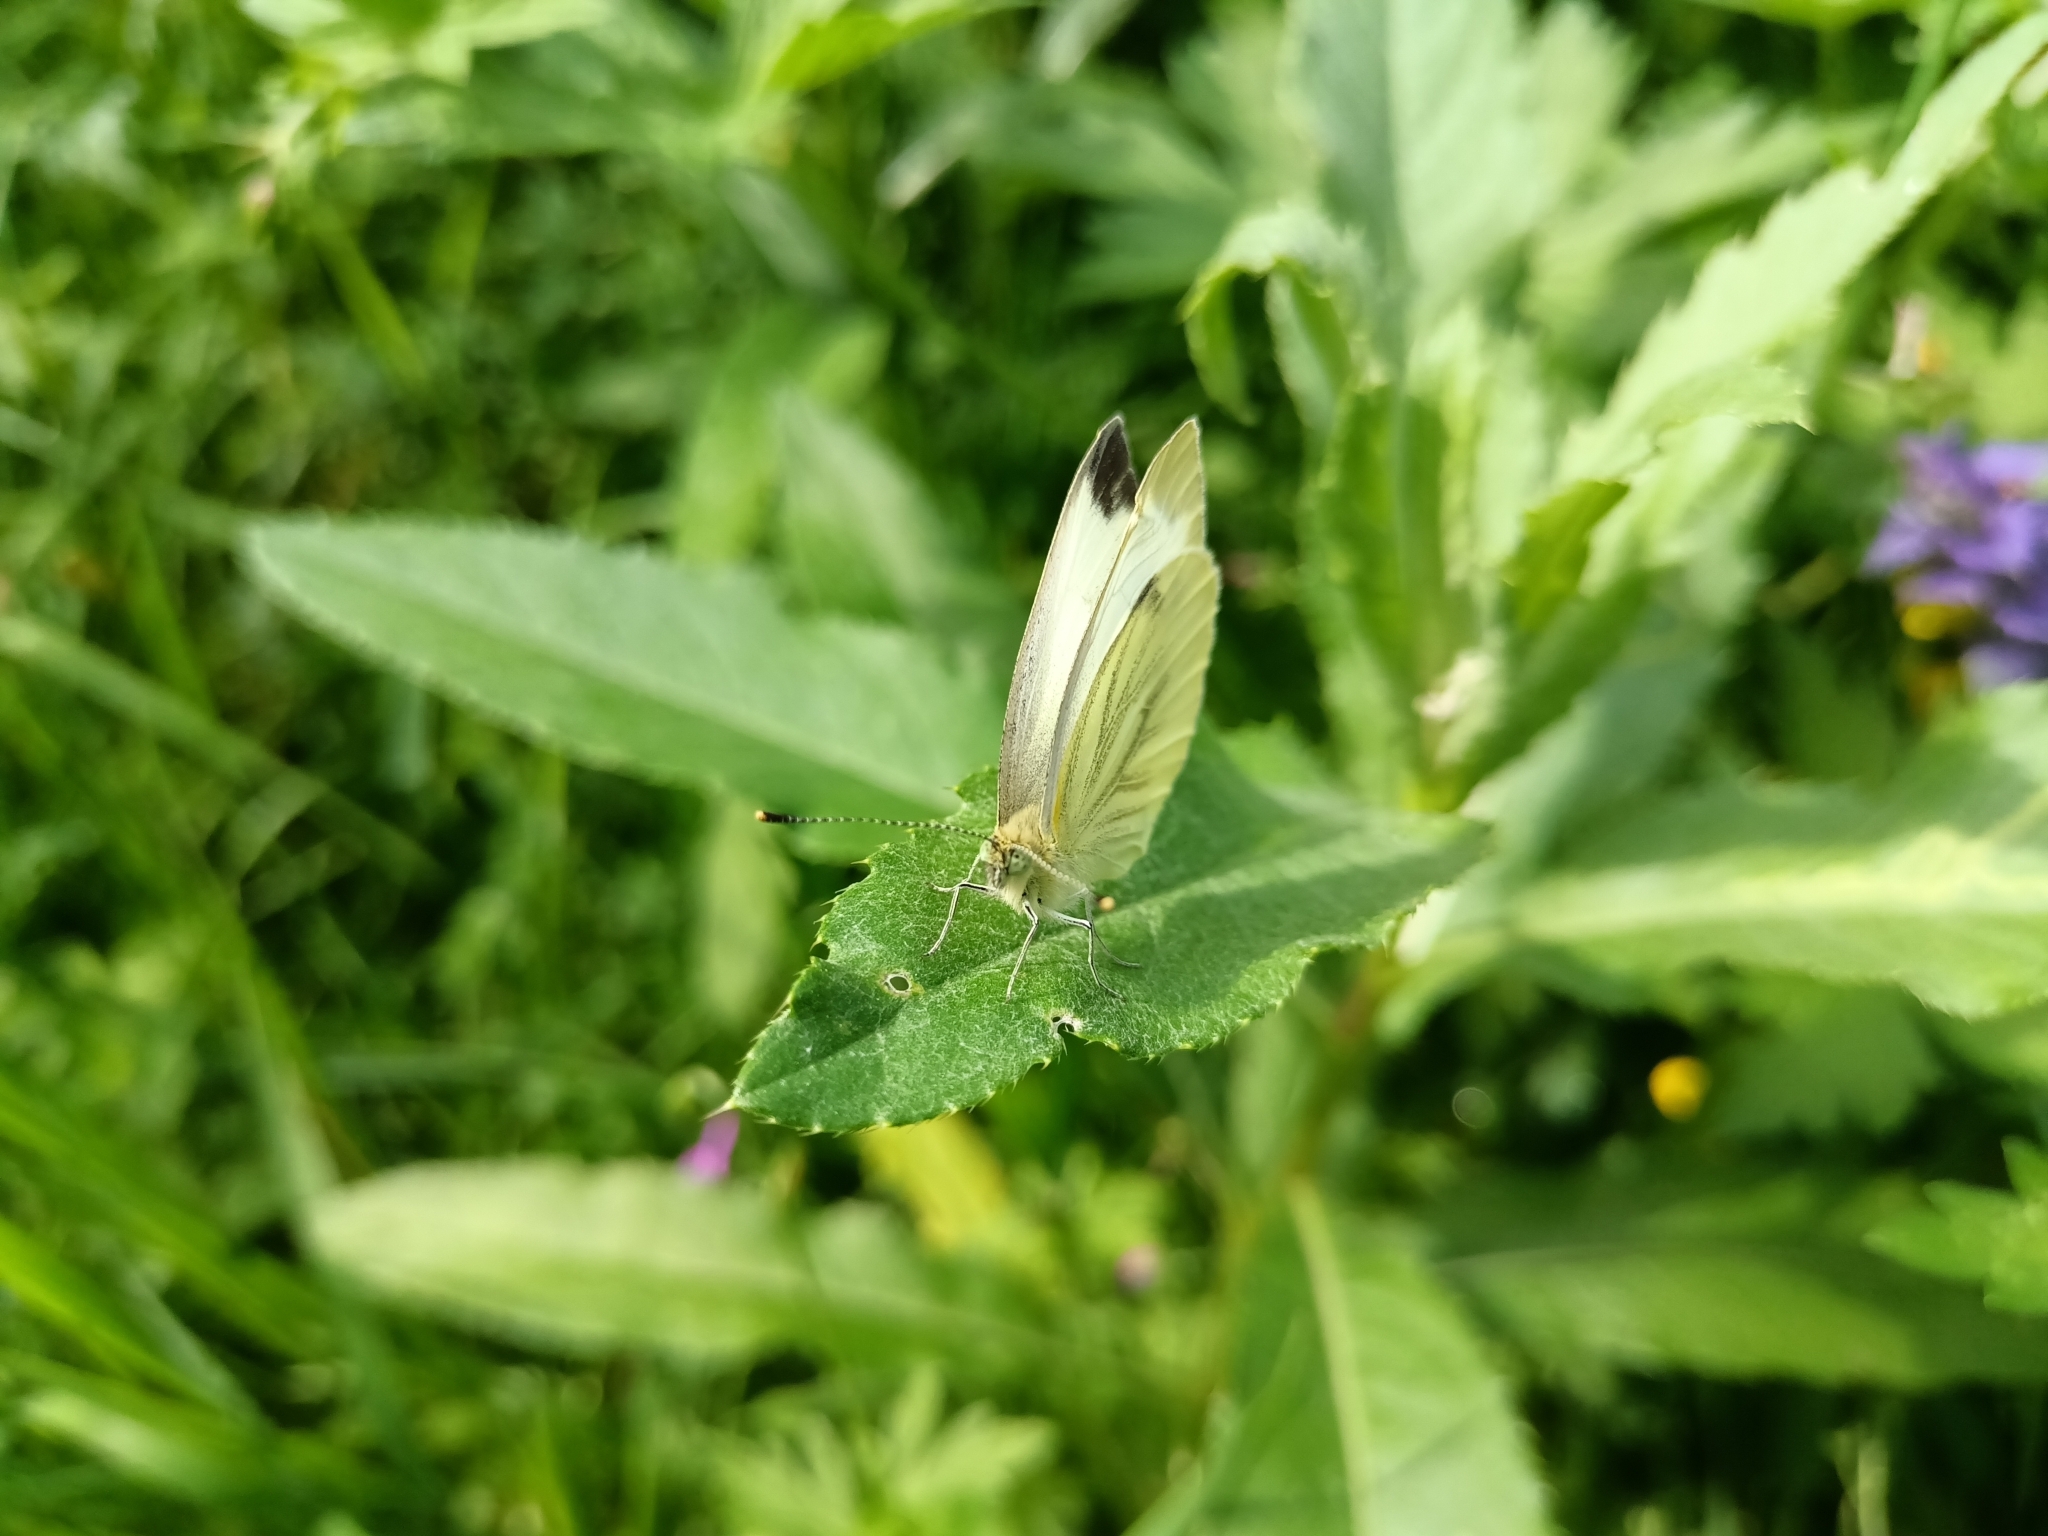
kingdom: Animalia
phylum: Arthropoda
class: Insecta
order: Lepidoptera
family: Pieridae
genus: Pieris
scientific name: Pieris napi
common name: Green-veined white
